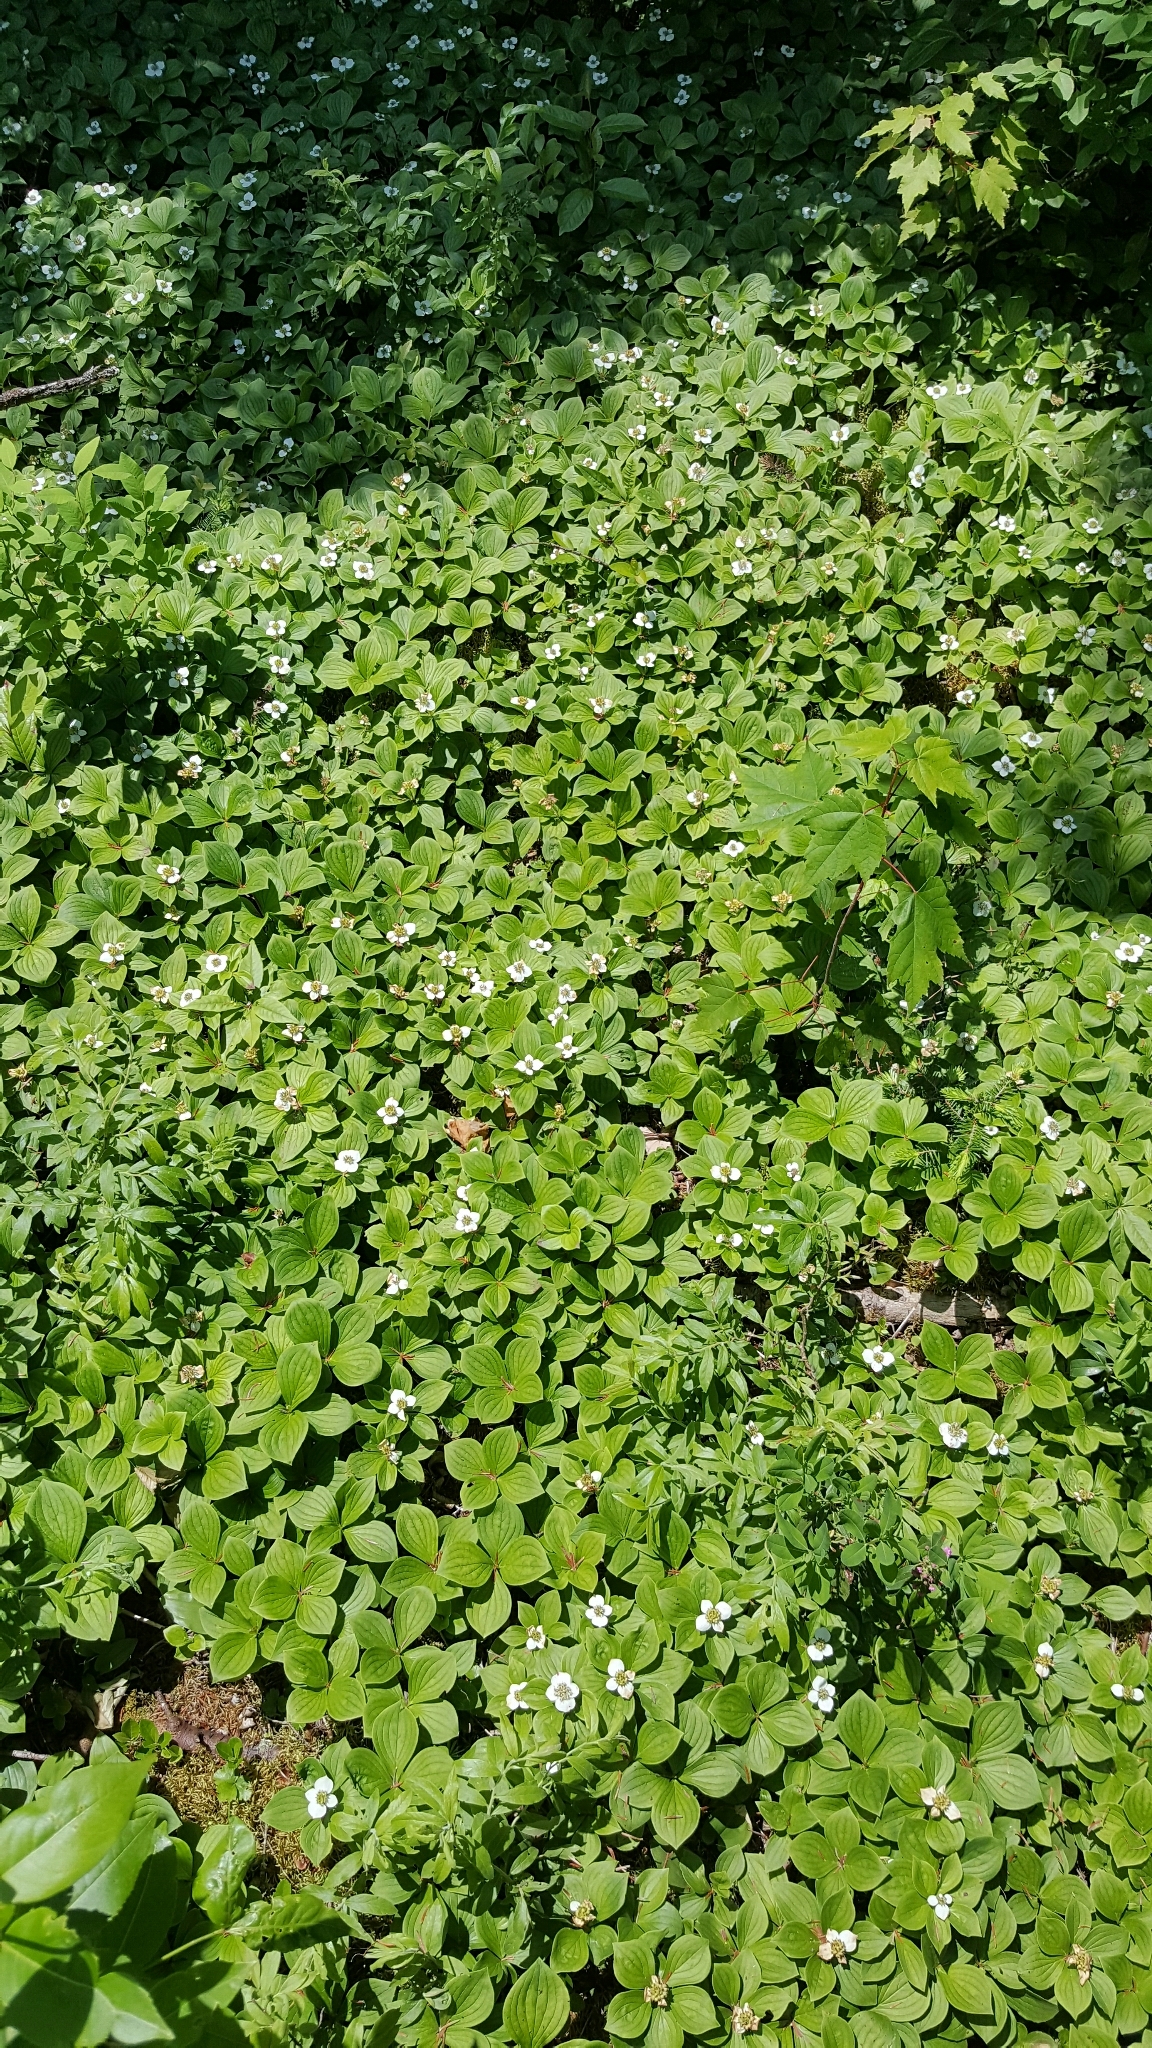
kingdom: Plantae
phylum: Tracheophyta
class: Magnoliopsida
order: Cornales
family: Cornaceae
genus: Cornus
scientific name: Cornus canadensis
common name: Creeping dogwood
